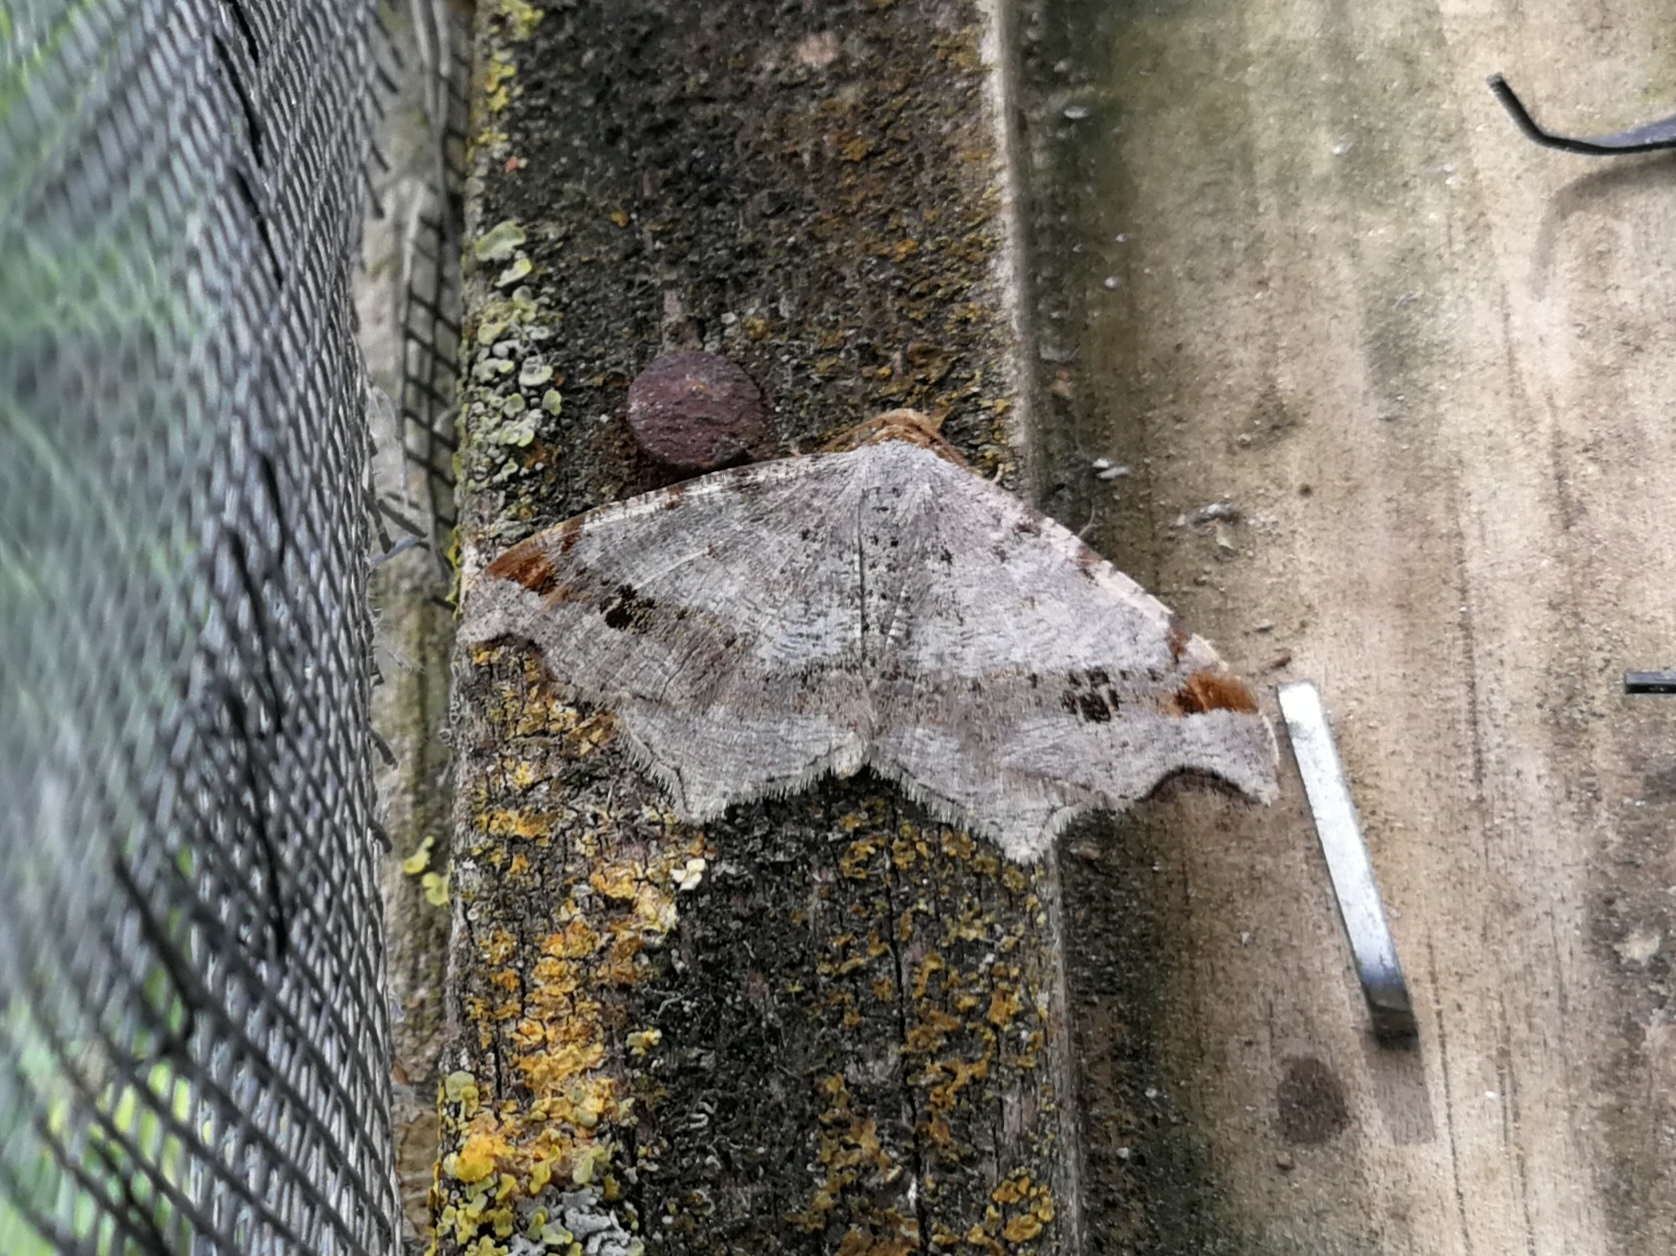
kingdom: Animalia
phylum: Arthropoda
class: Insecta
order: Lepidoptera
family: Geometridae
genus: Macaria
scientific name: Macaria alternata
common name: Sharp-angled peacock
